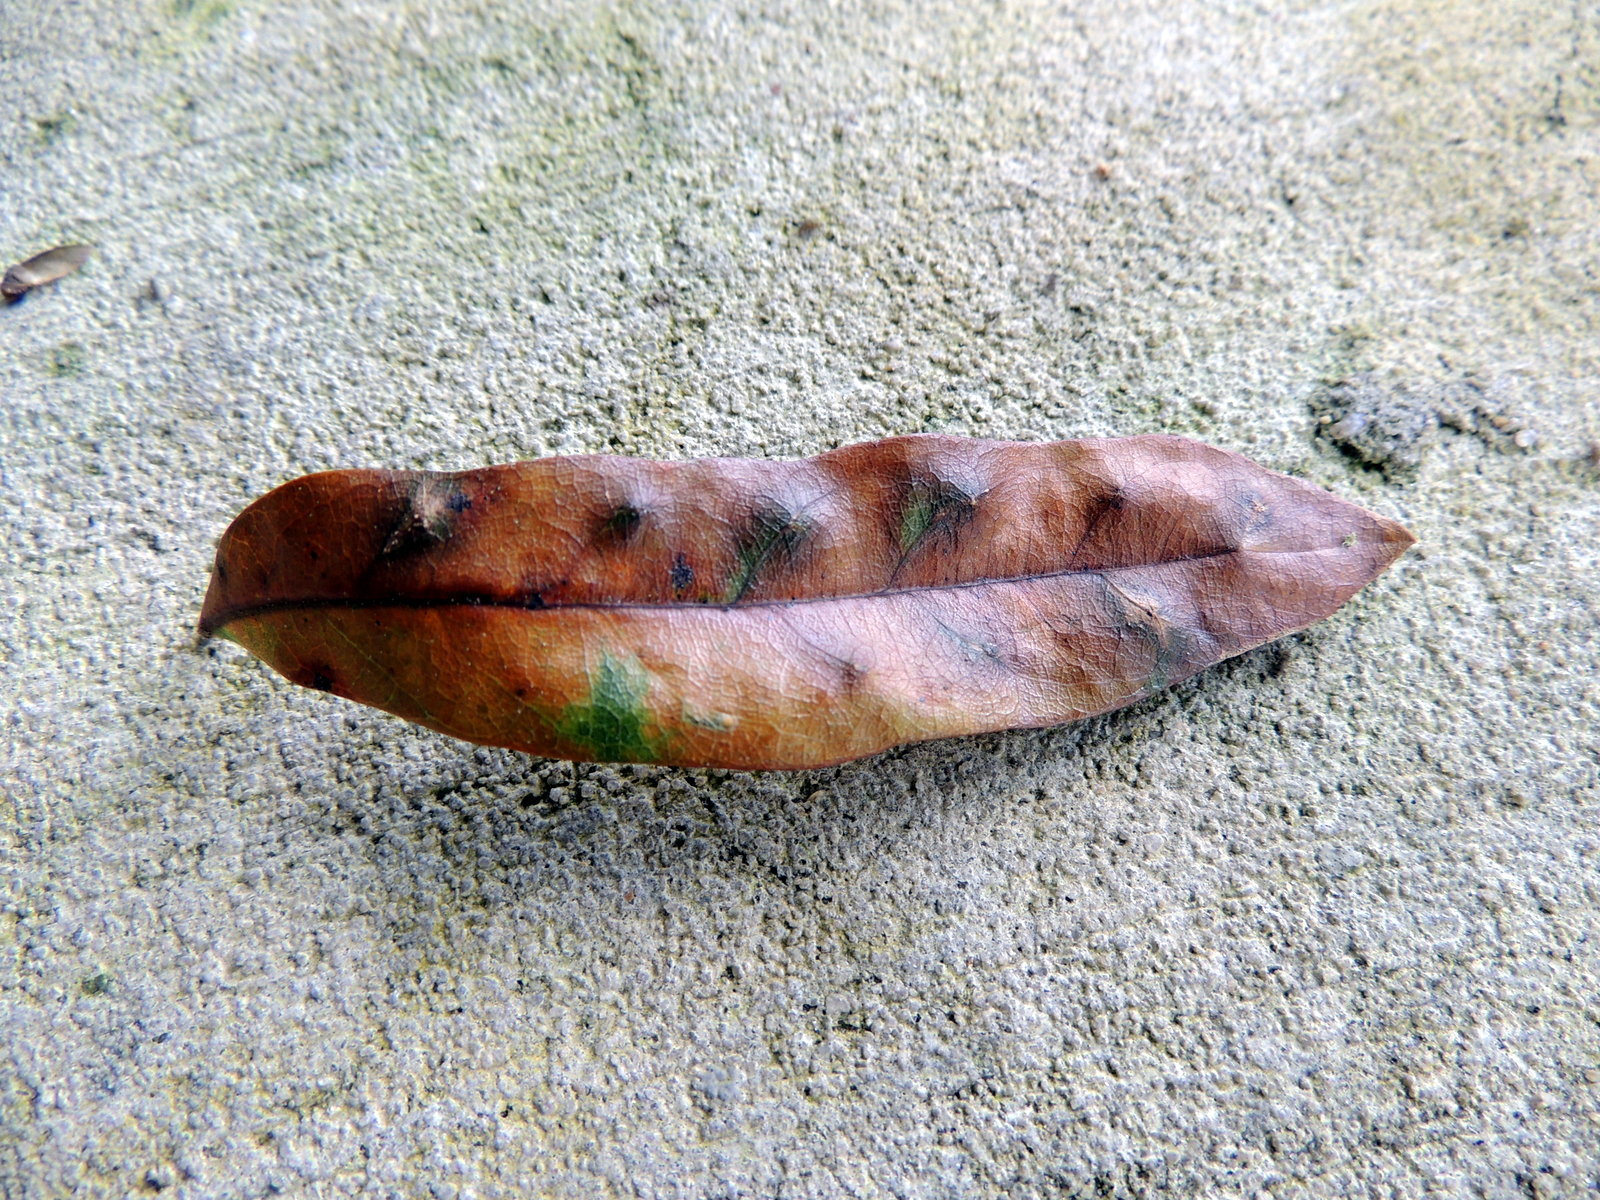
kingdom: Animalia
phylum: Arthropoda
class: Insecta
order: Hymenoptera
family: Cynipidae
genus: Belonocnema
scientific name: Belonocnema treatae
